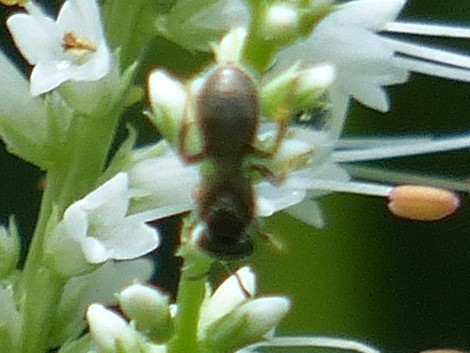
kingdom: Animalia
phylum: Arthropoda
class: Insecta
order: Hymenoptera
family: Halictidae
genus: Dialictus
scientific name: Dialictus
